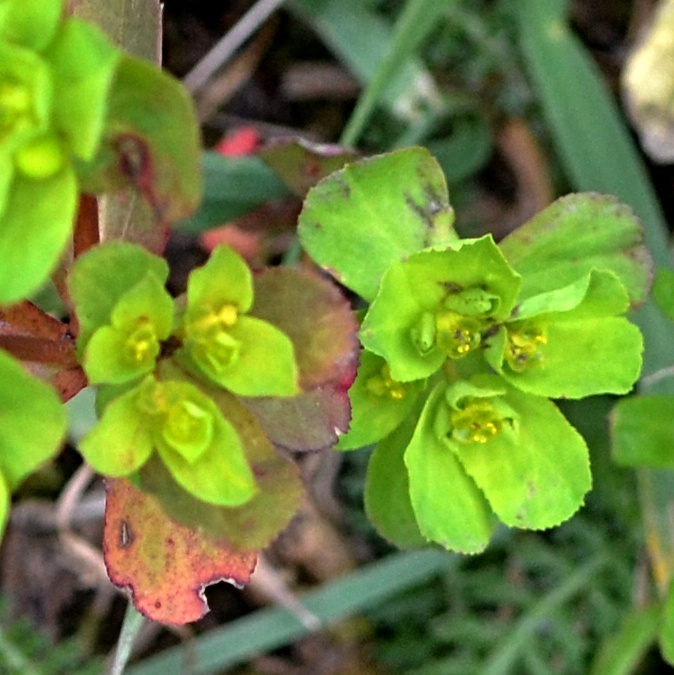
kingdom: Plantae
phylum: Tracheophyta
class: Magnoliopsida
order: Malpighiales
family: Euphorbiaceae
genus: Euphorbia
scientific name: Euphorbia helioscopia
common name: Sun spurge
